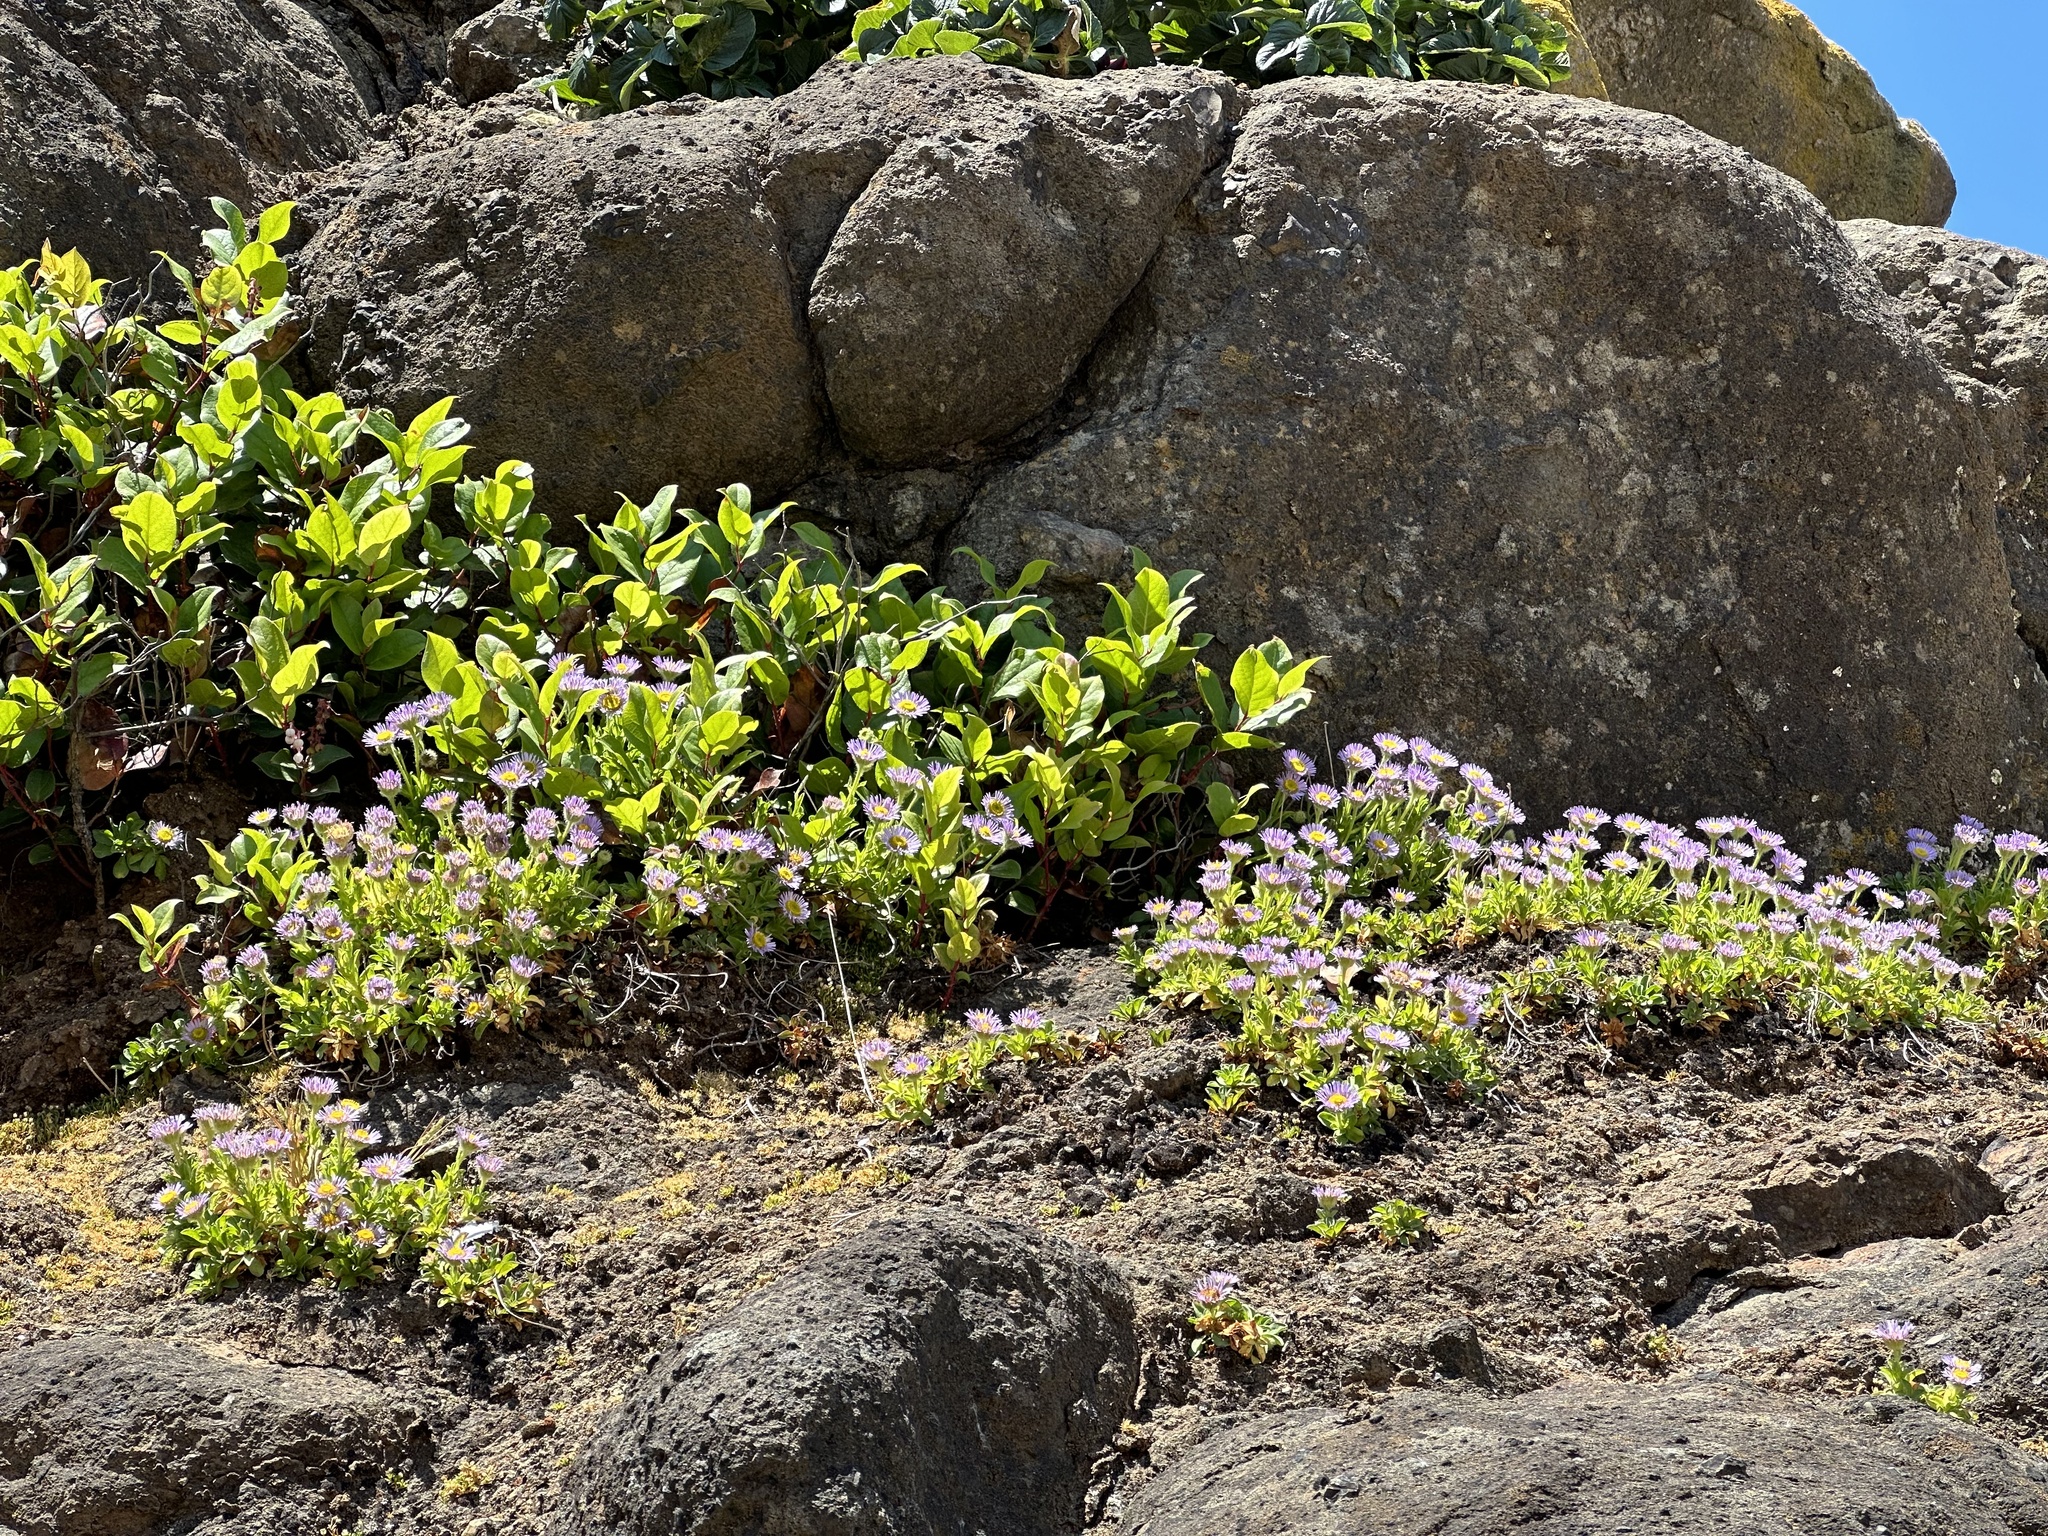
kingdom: Plantae
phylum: Tracheophyta
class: Magnoliopsida
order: Asterales
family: Asteraceae
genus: Erigeron
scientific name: Erigeron glaucus
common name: Seaside daisy
